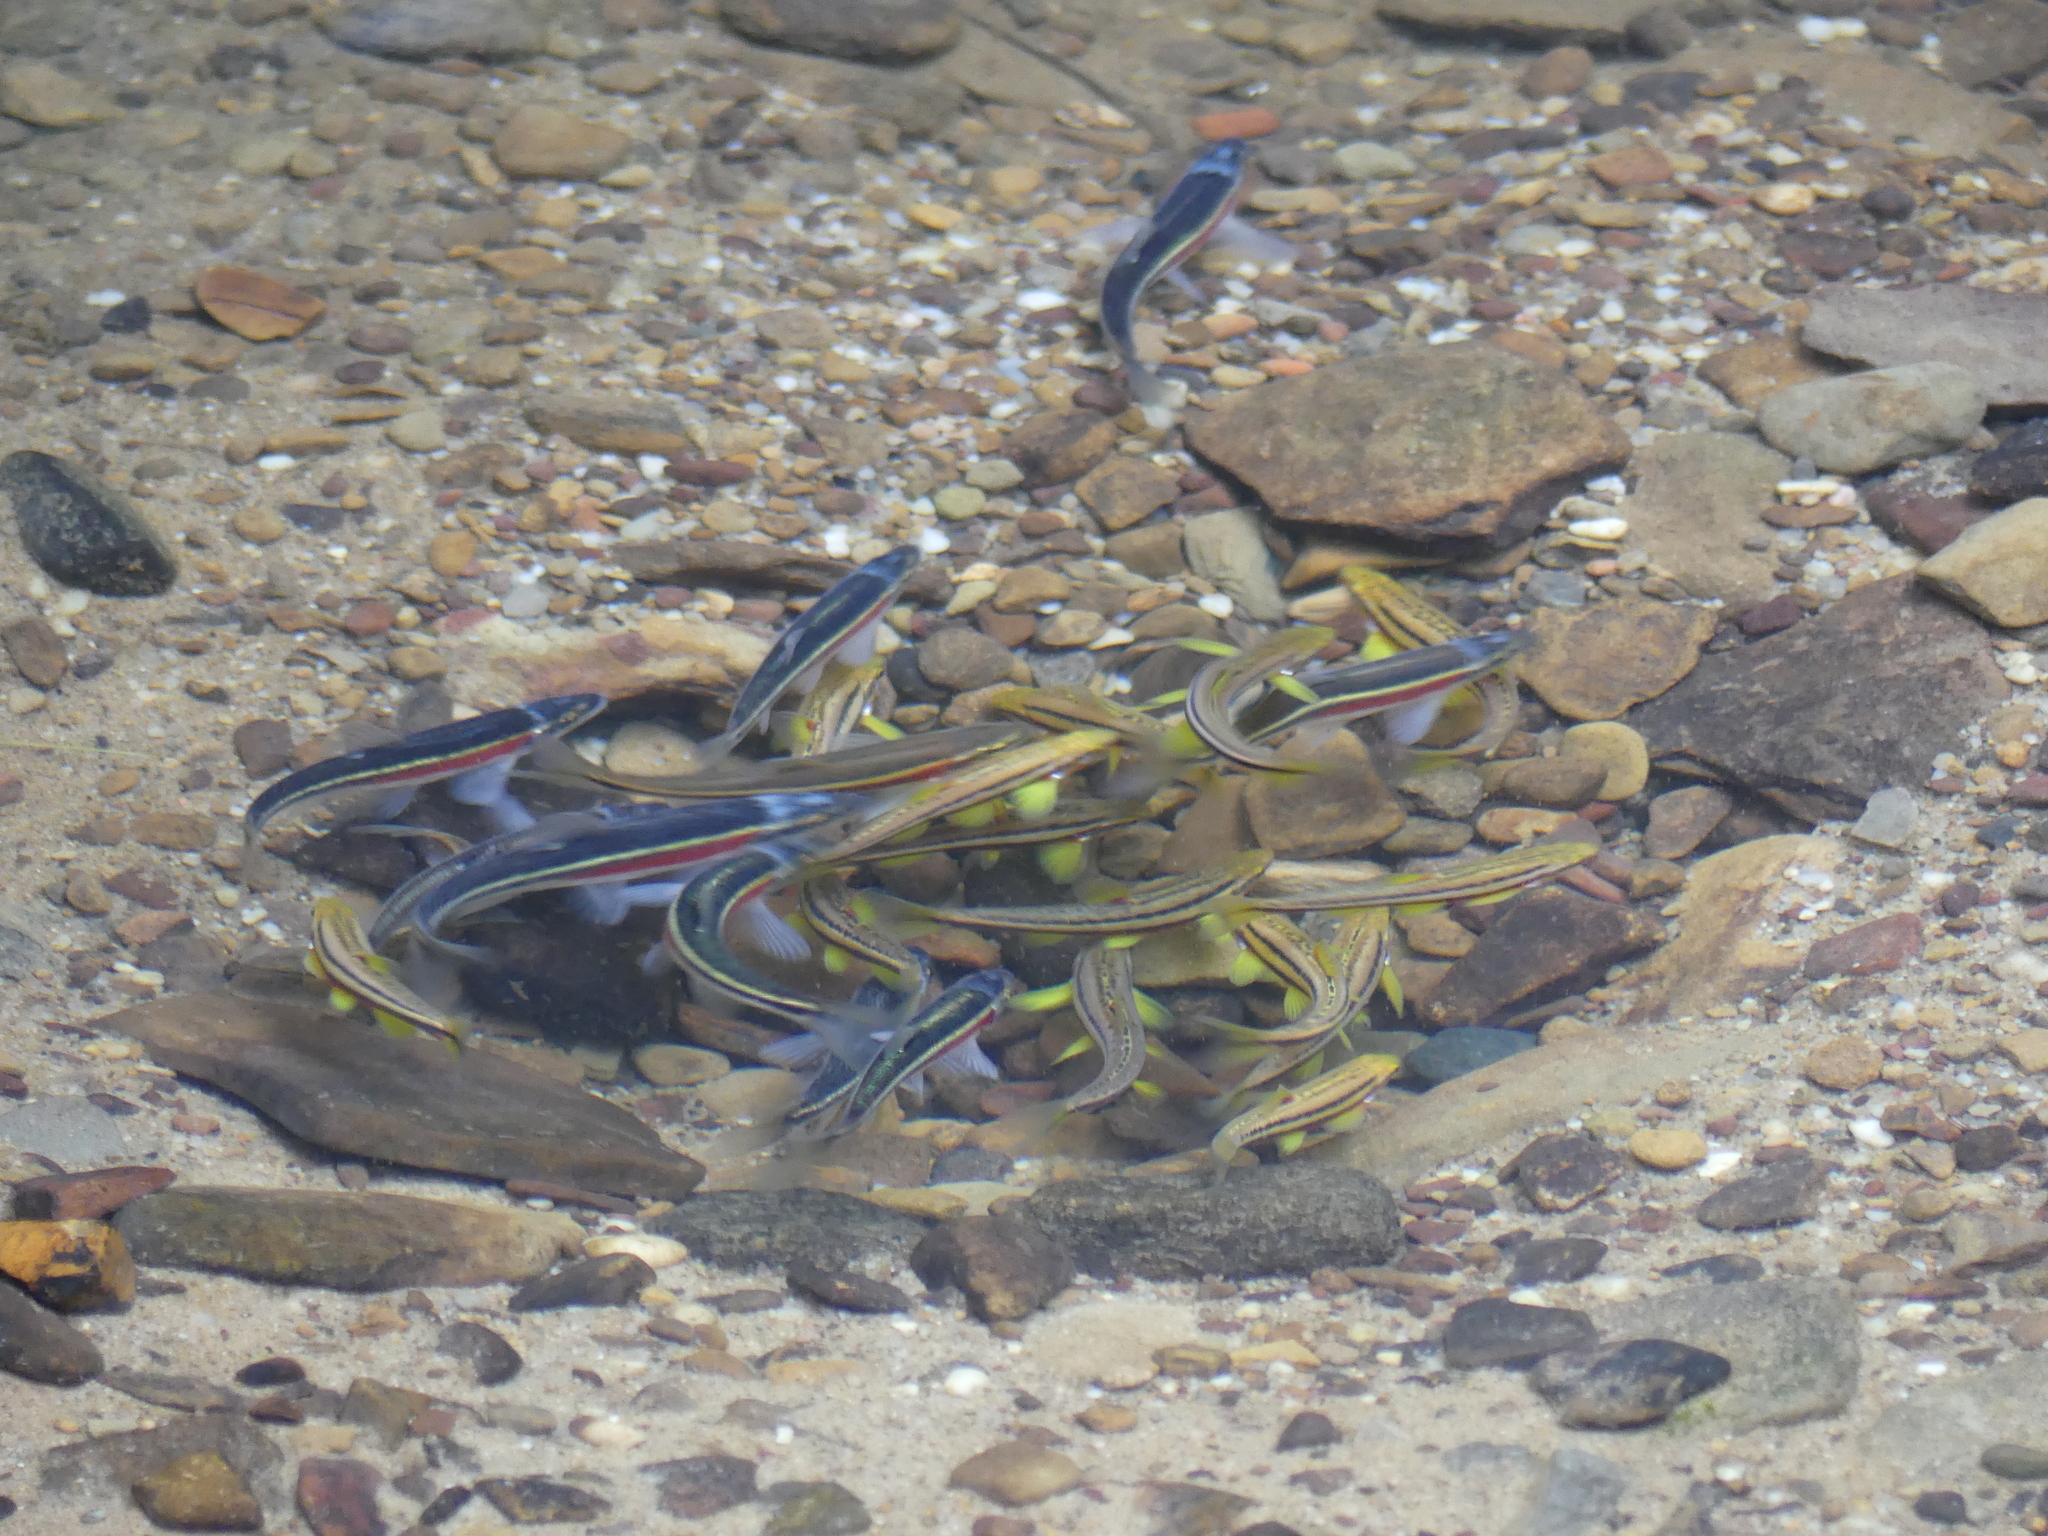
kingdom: Animalia
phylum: Chordata
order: Cypriniformes
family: Cyprinidae
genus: Clinostomus
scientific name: Clinostomus elongatus
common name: Redside dace
